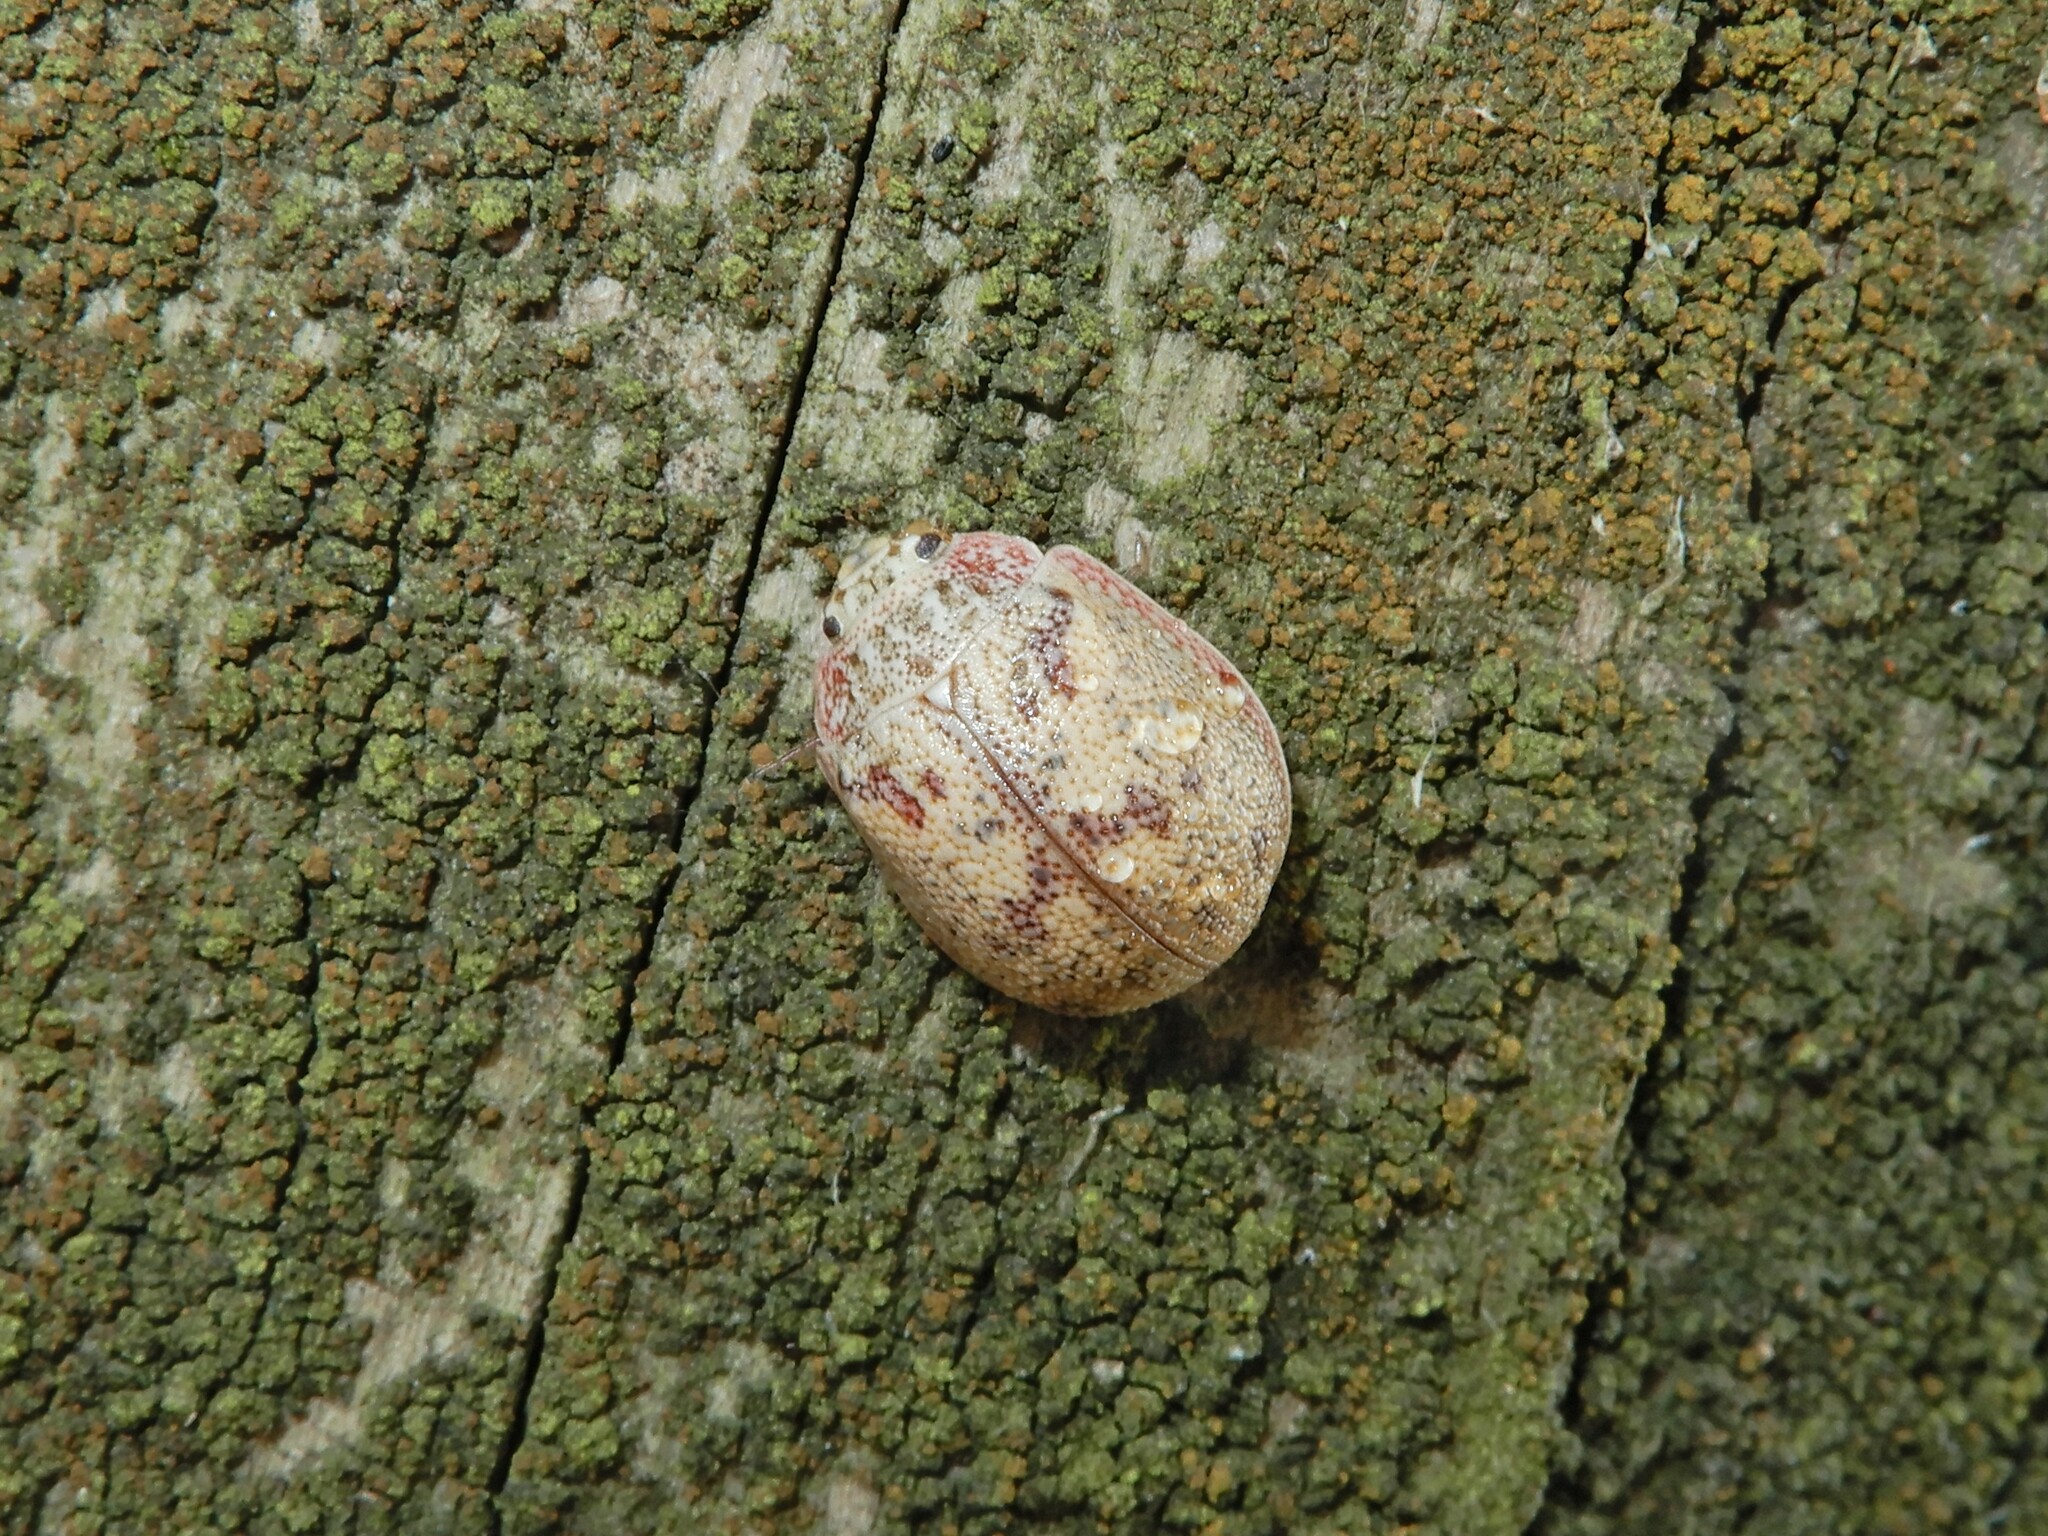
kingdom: Animalia
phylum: Arthropoda
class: Insecta
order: Coleoptera
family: Chrysomelidae
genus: Paropsis
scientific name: Paropsis charybdis
